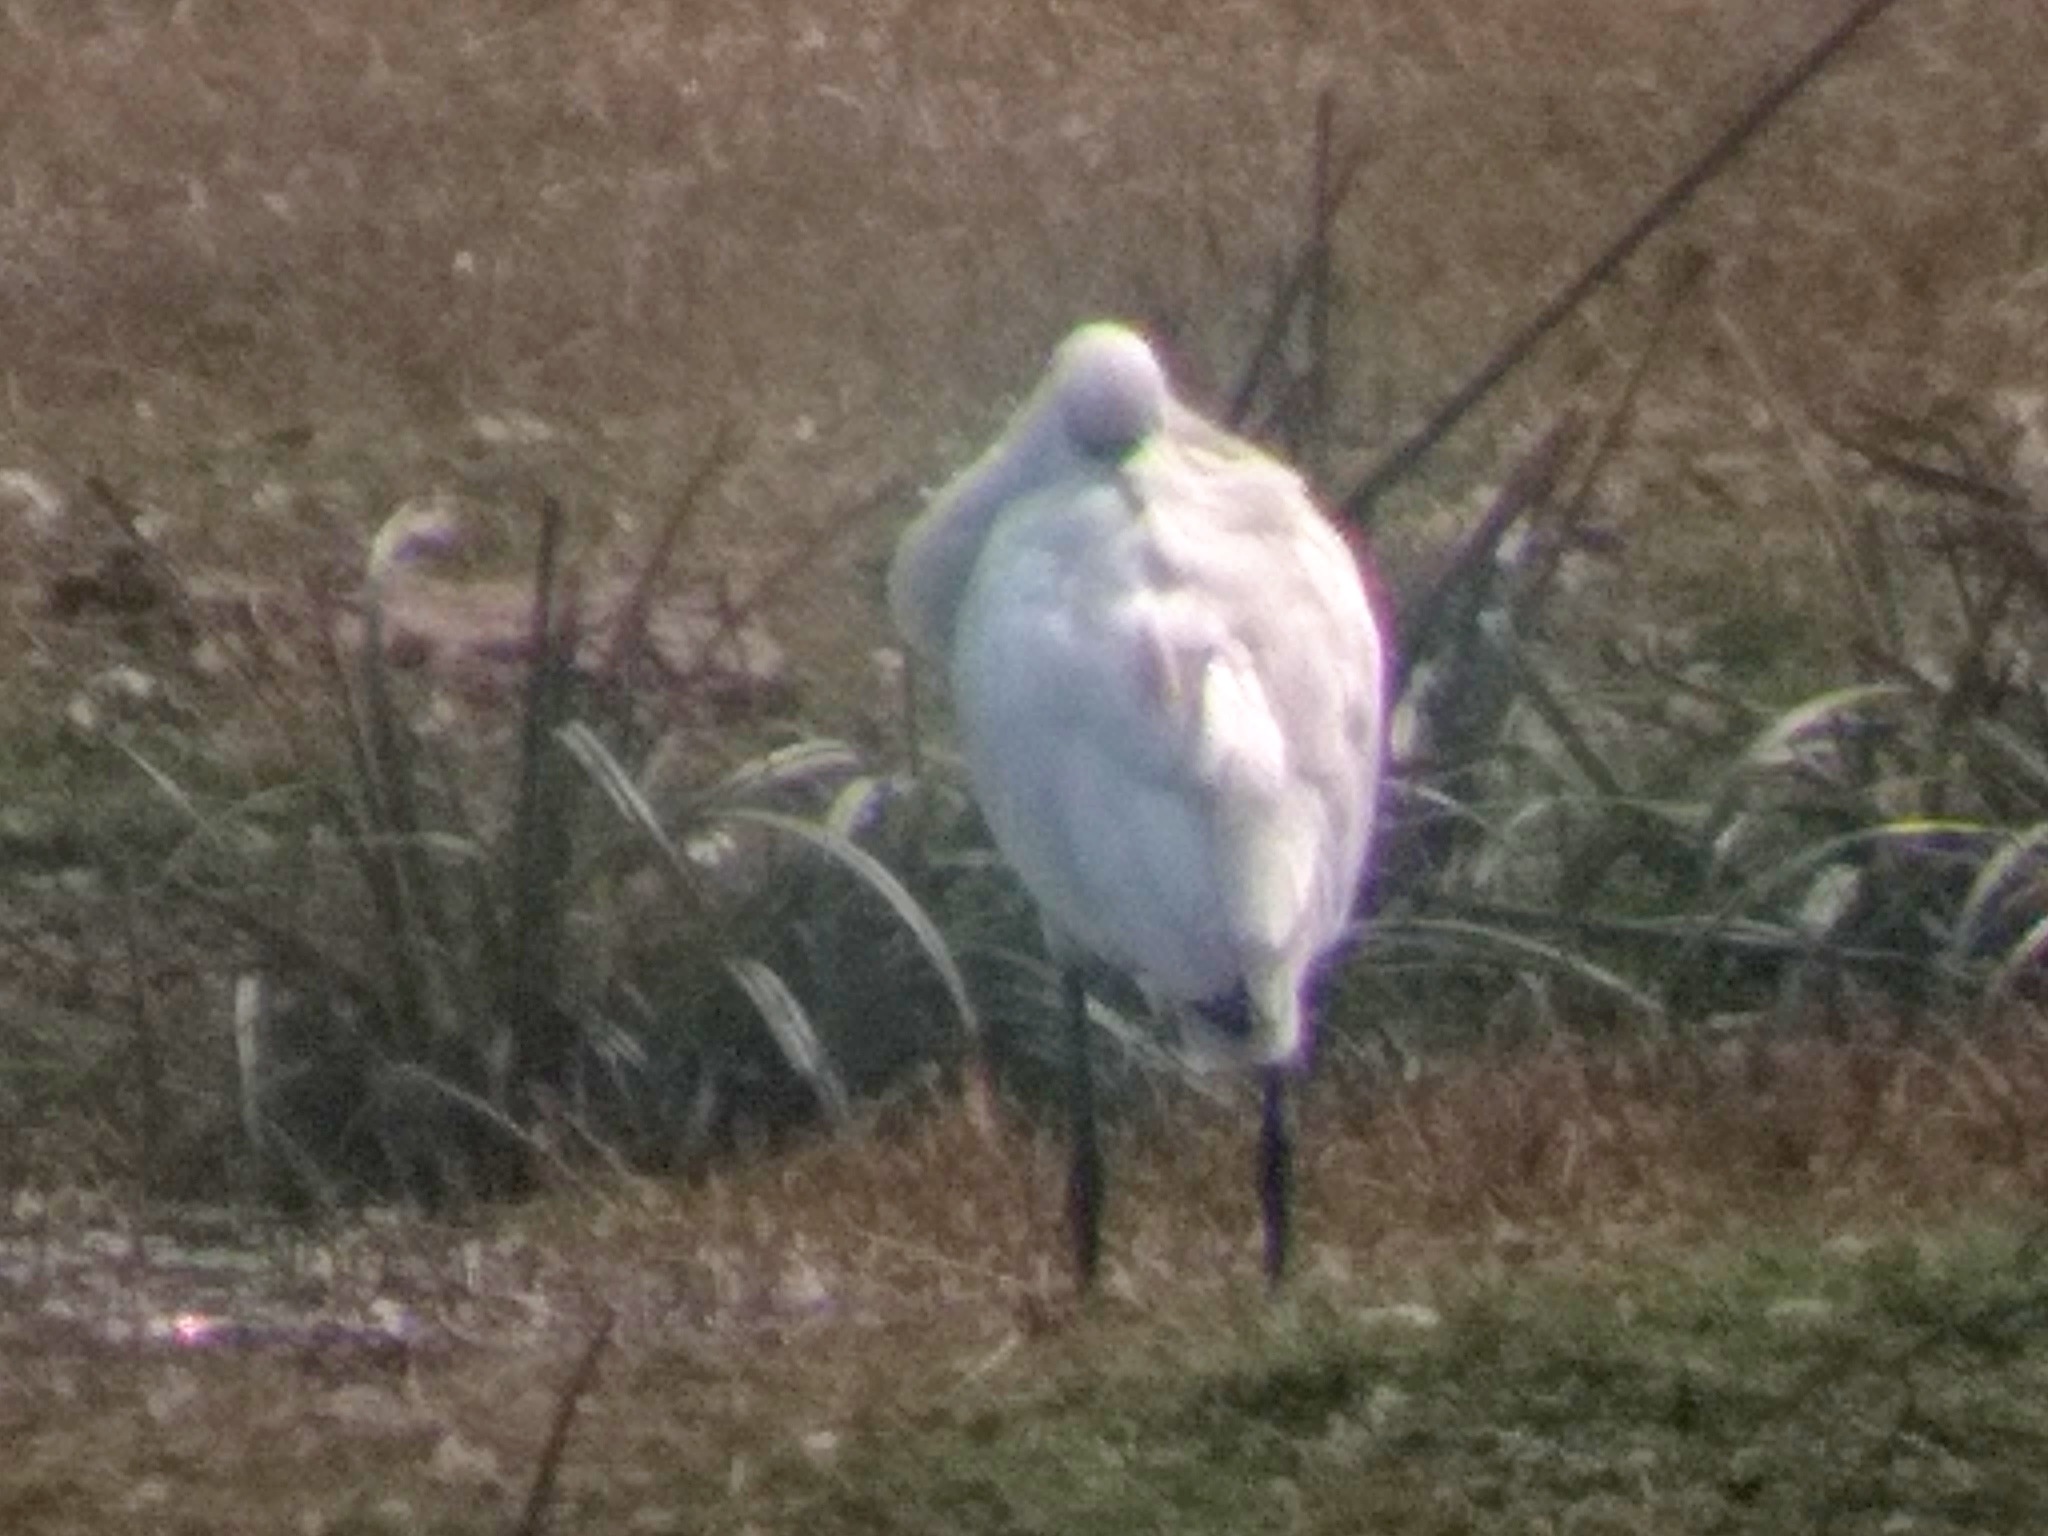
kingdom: Animalia
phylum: Chordata
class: Aves
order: Pelecaniformes
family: Threskiornithidae
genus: Platalea
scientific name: Platalea leucorodia
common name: Eurasian spoonbill
